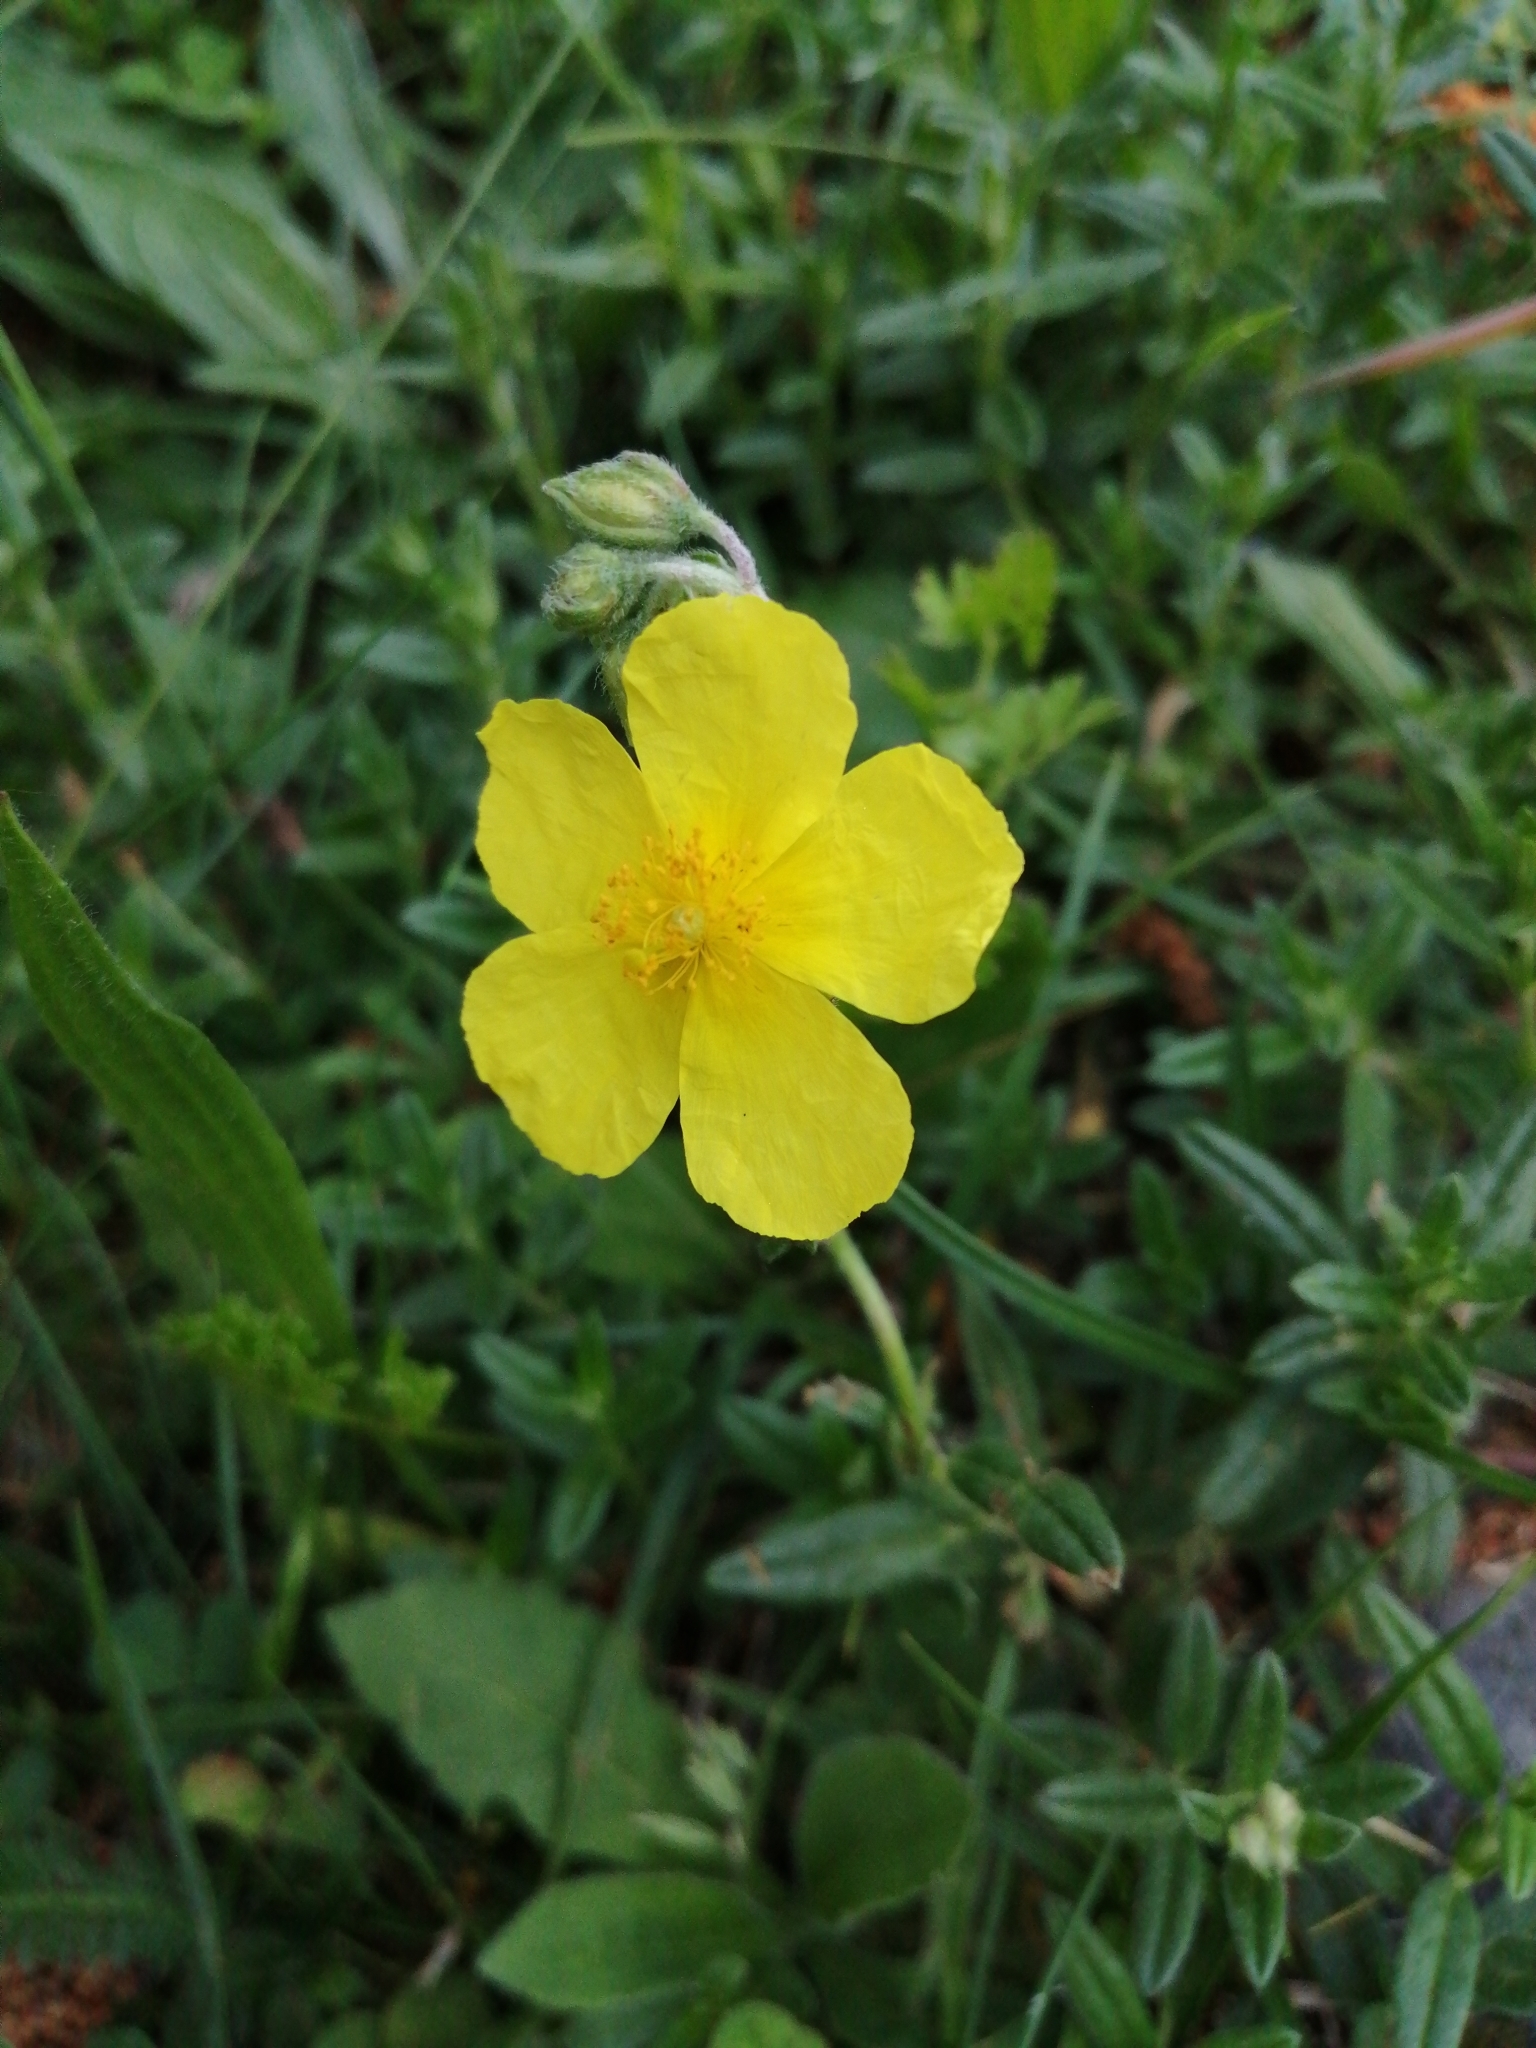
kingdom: Plantae
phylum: Tracheophyta
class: Magnoliopsida
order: Malvales
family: Cistaceae
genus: Helianthemum
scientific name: Helianthemum nummularium
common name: Common rock-rose
